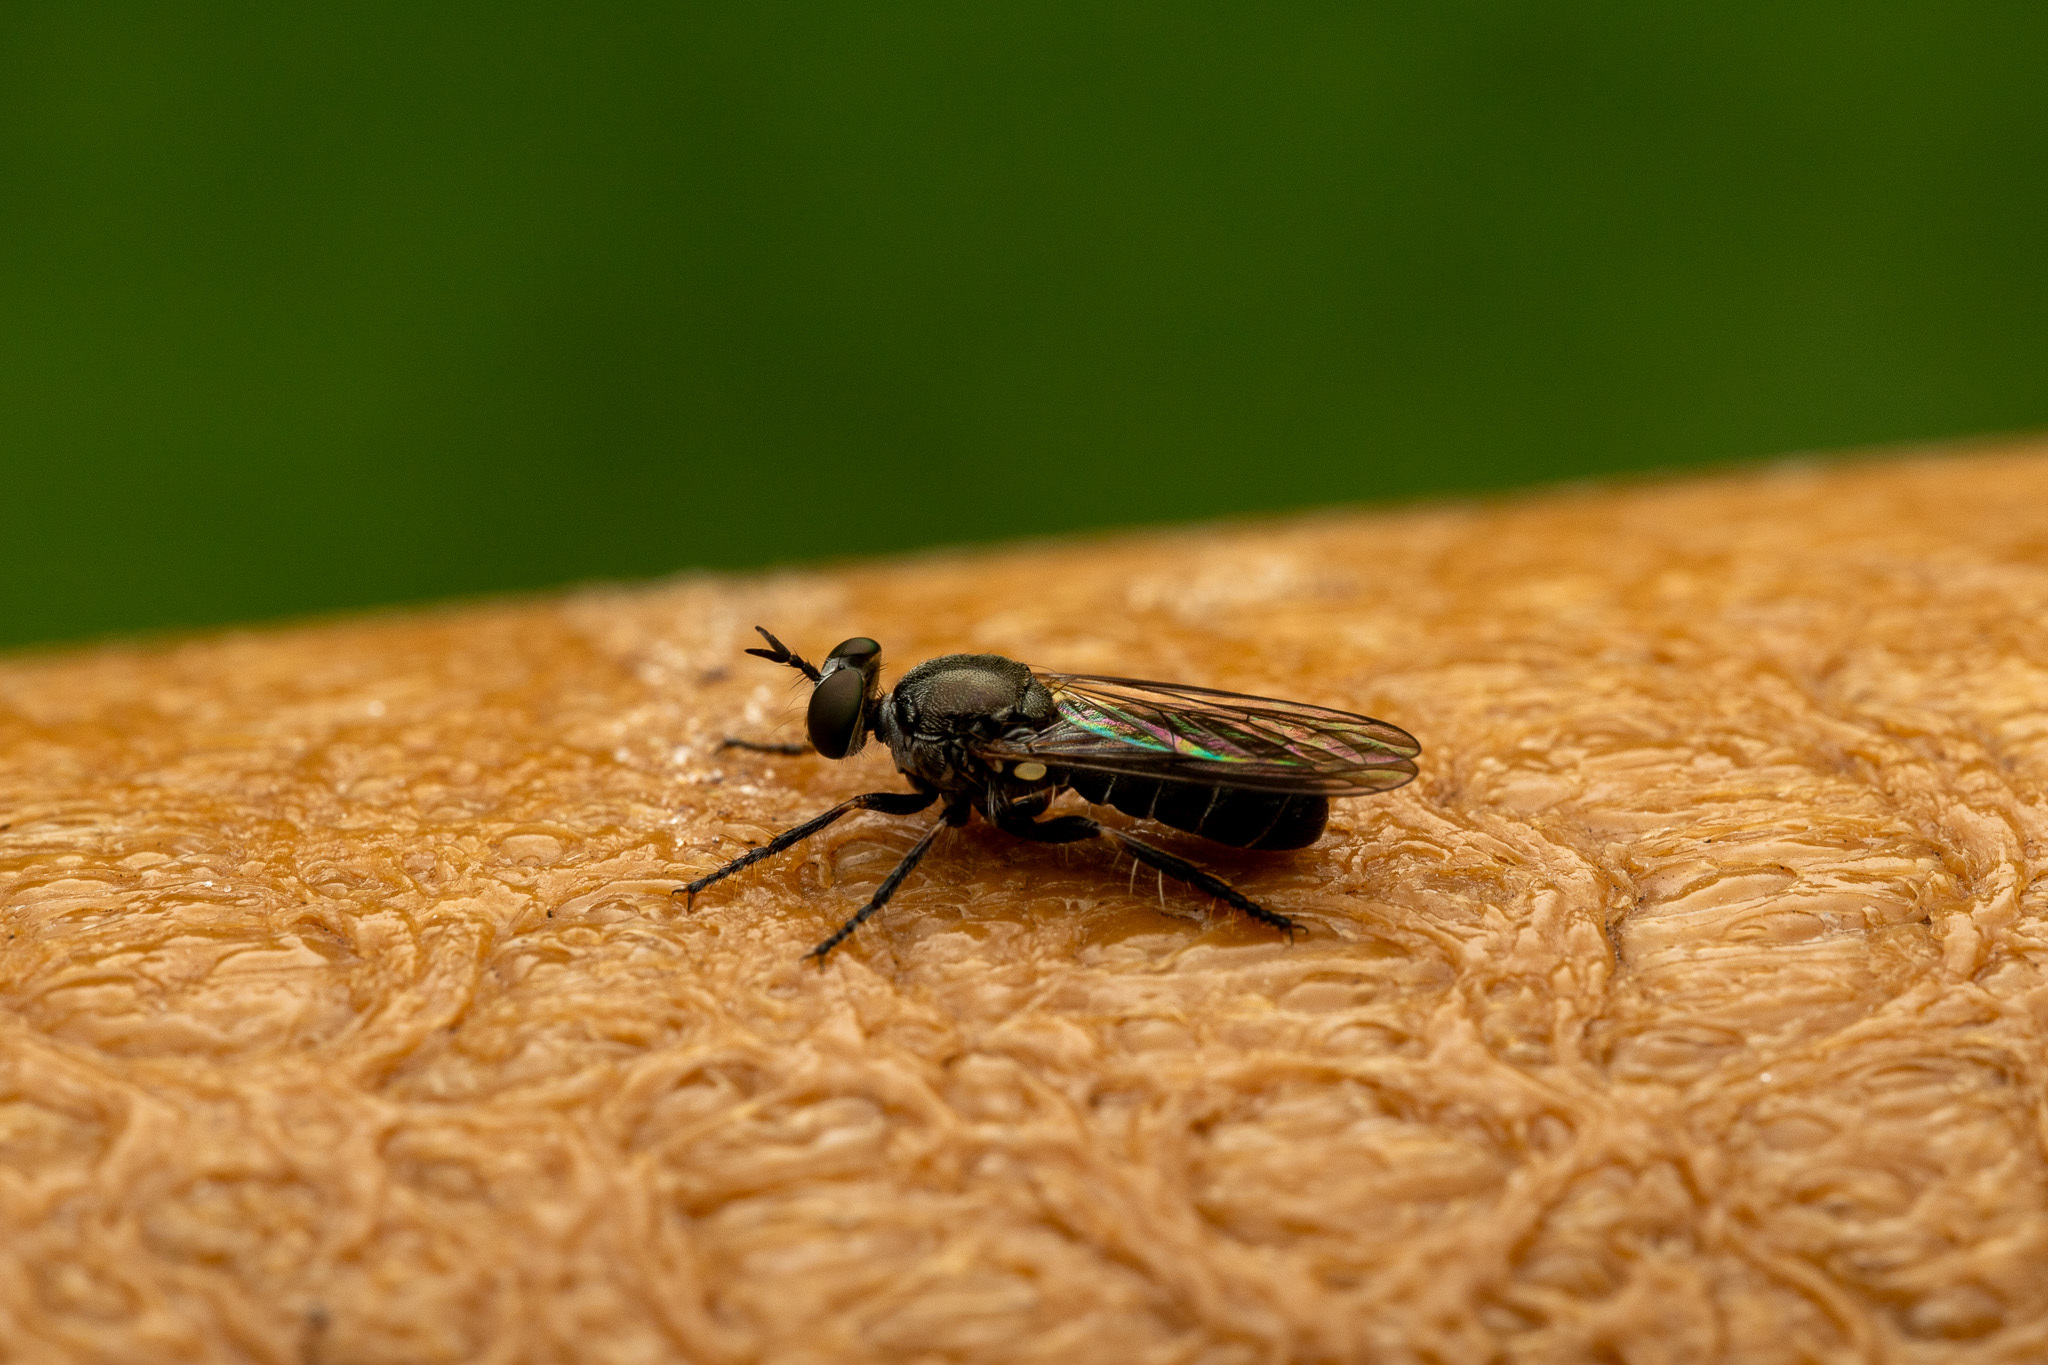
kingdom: Animalia
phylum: Arthropoda
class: Insecta
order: Diptera
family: Asilidae
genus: Atomosia
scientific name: Atomosia puella
